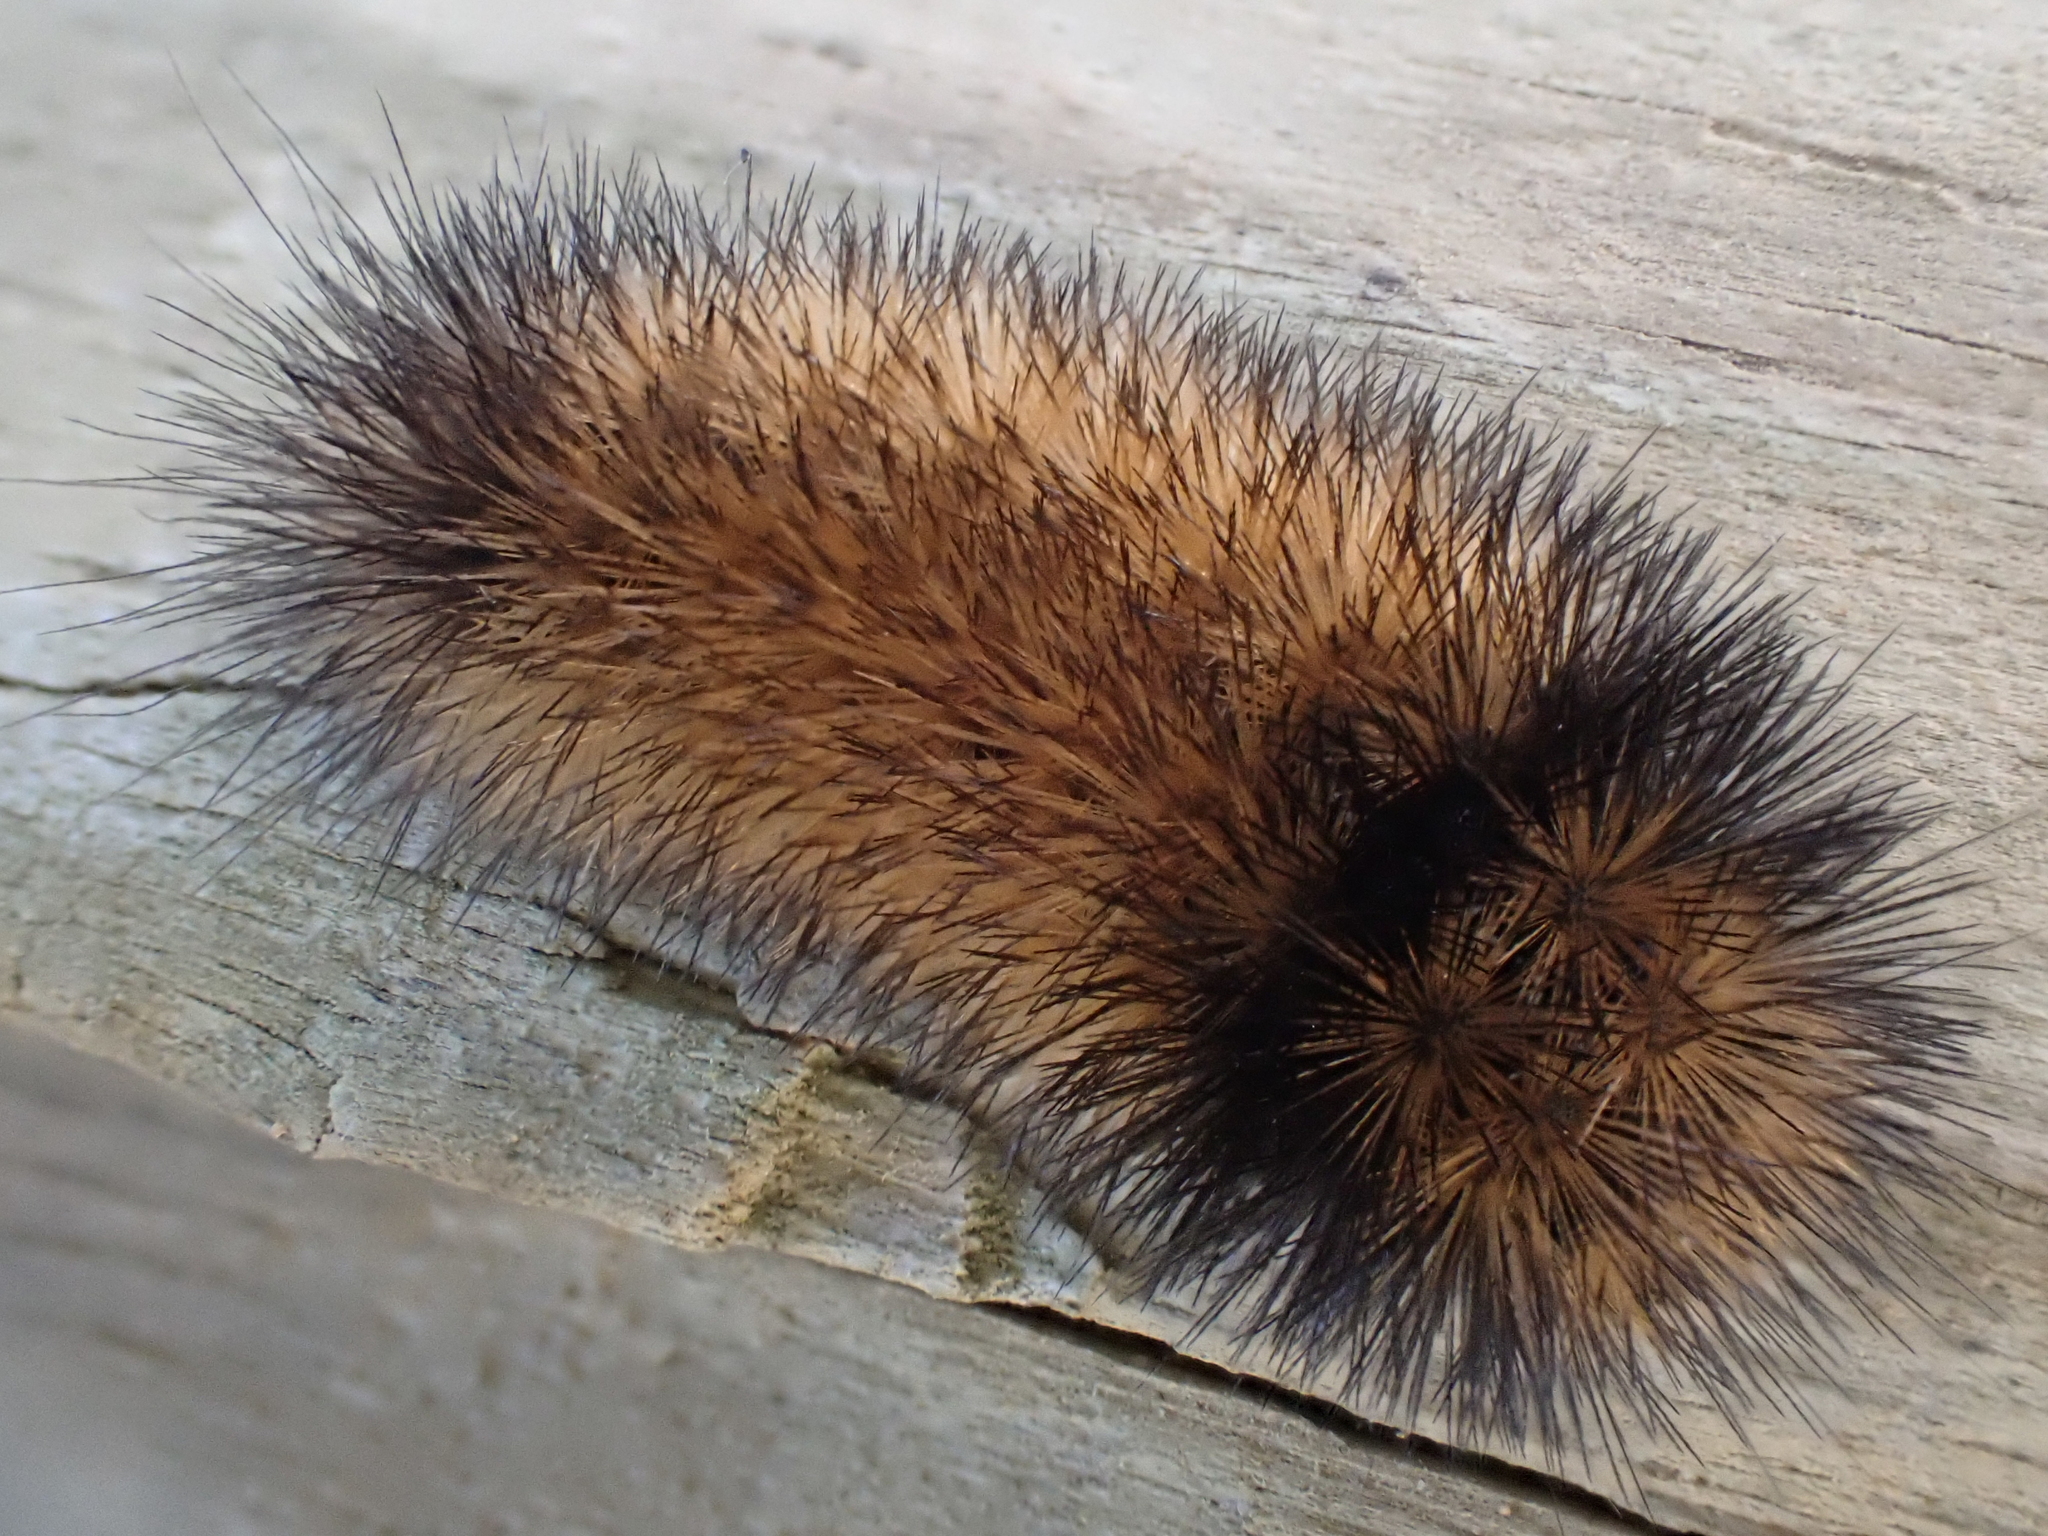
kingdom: Animalia
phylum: Arthropoda
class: Insecta
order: Lepidoptera
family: Erebidae
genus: Pyrrharctia
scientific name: Pyrrharctia isabella
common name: Isabella tiger moth
